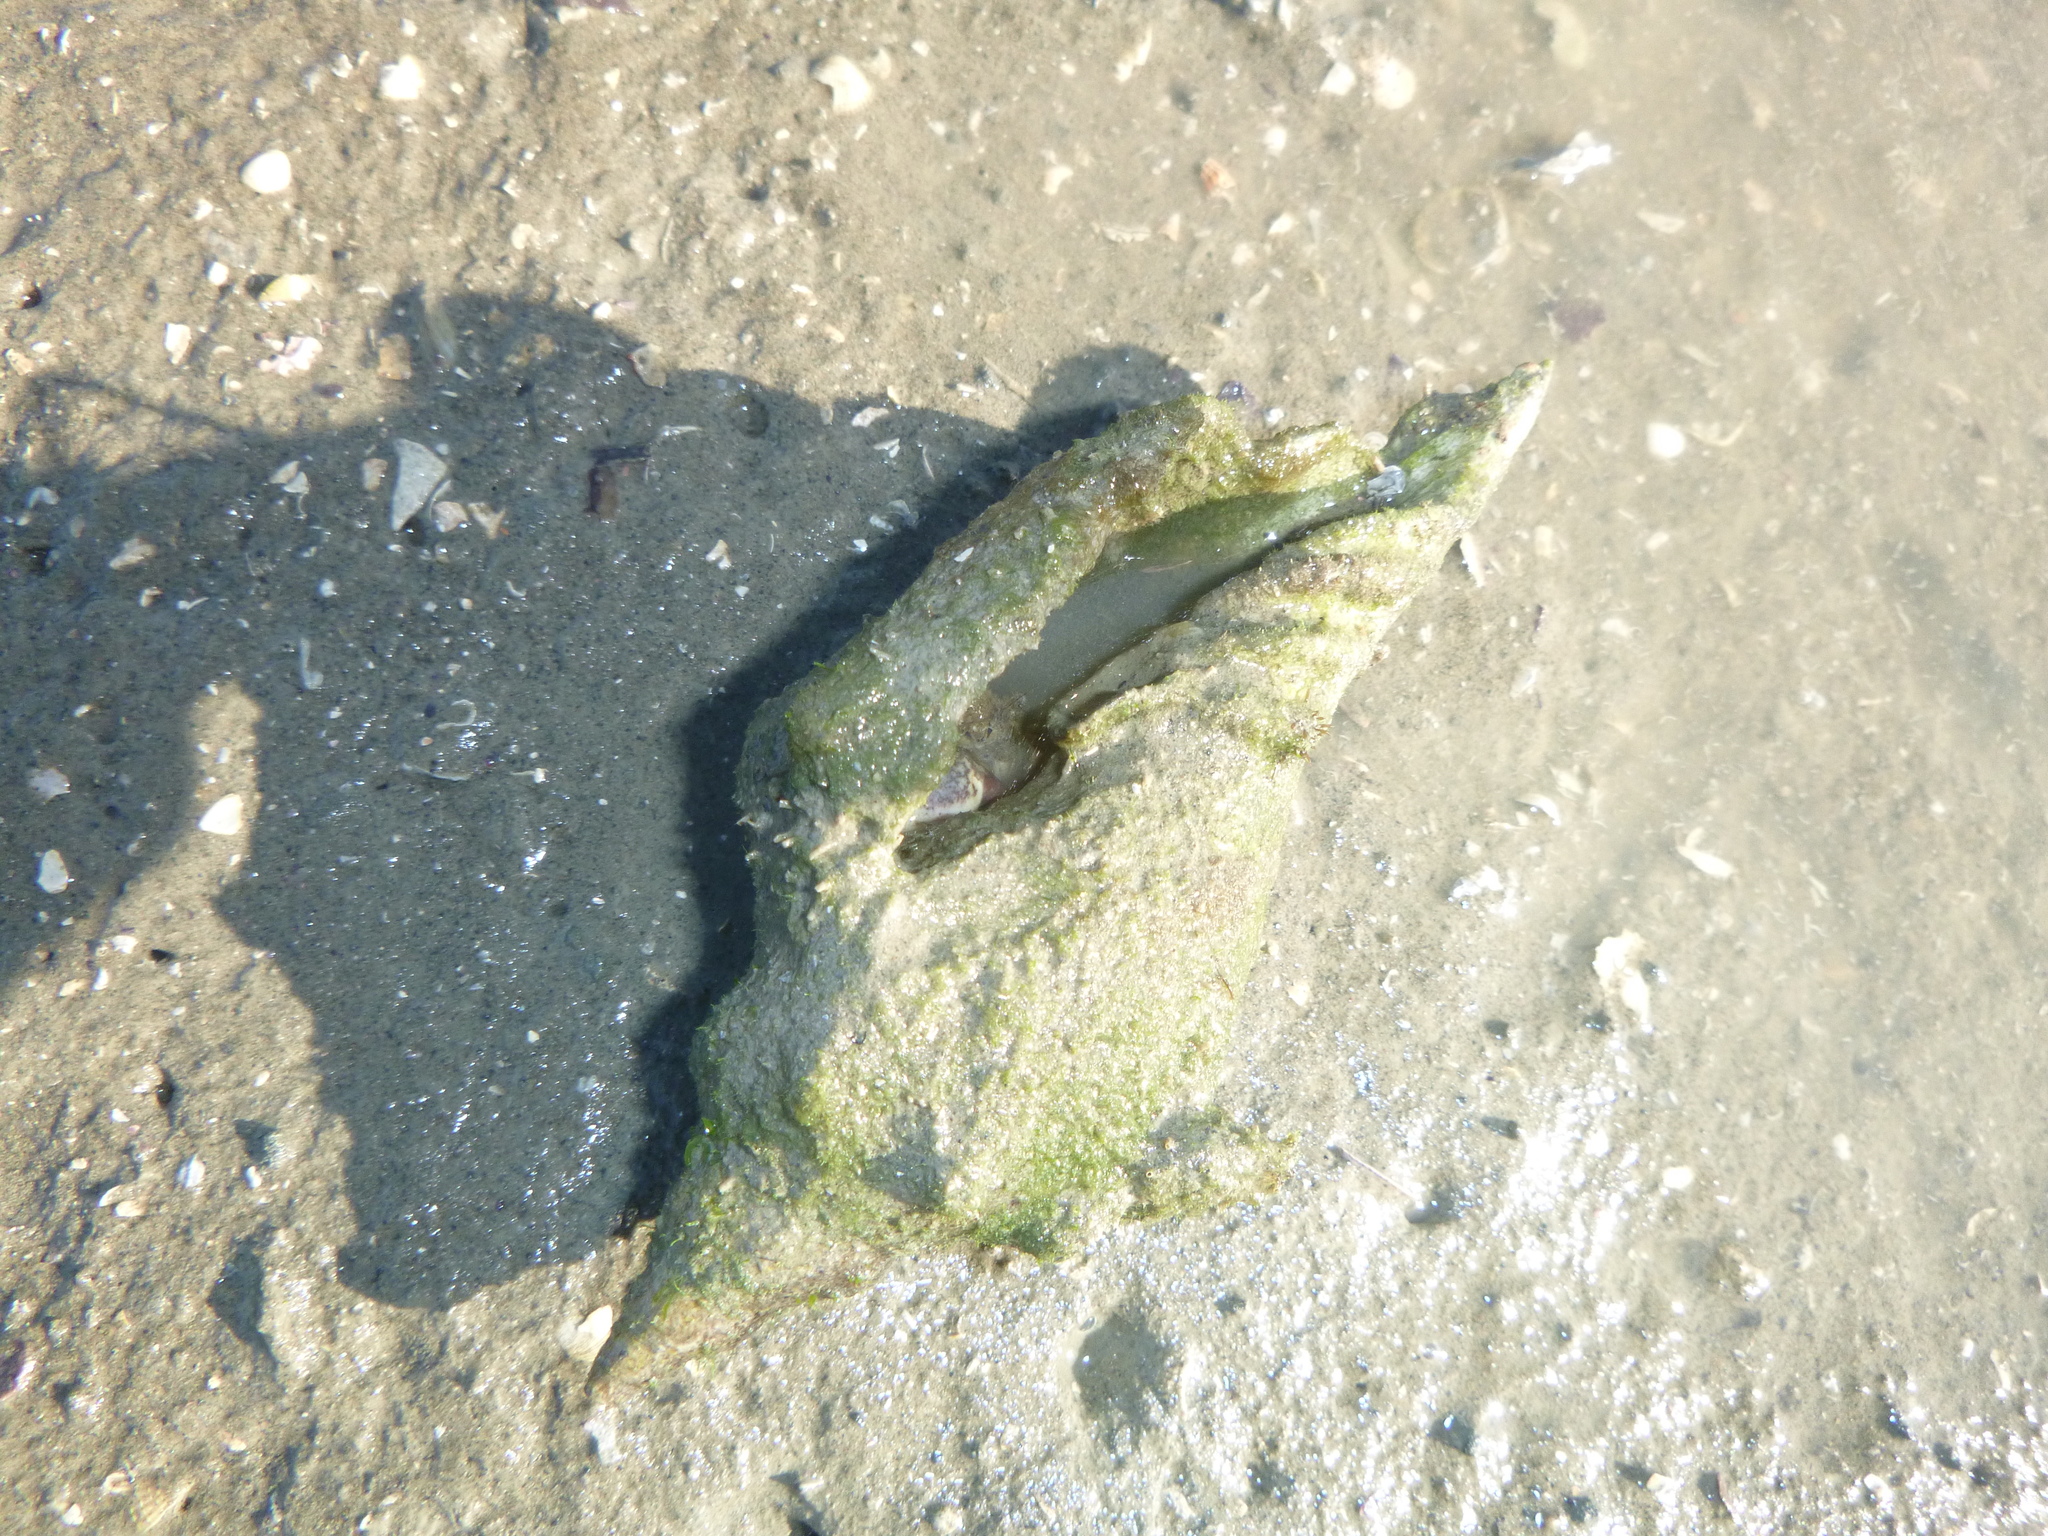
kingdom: Animalia
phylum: Mollusca
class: Gastropoda
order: Neogastropoda
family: Volutidae
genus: Alcithoe
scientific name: Alcithoe arabica
